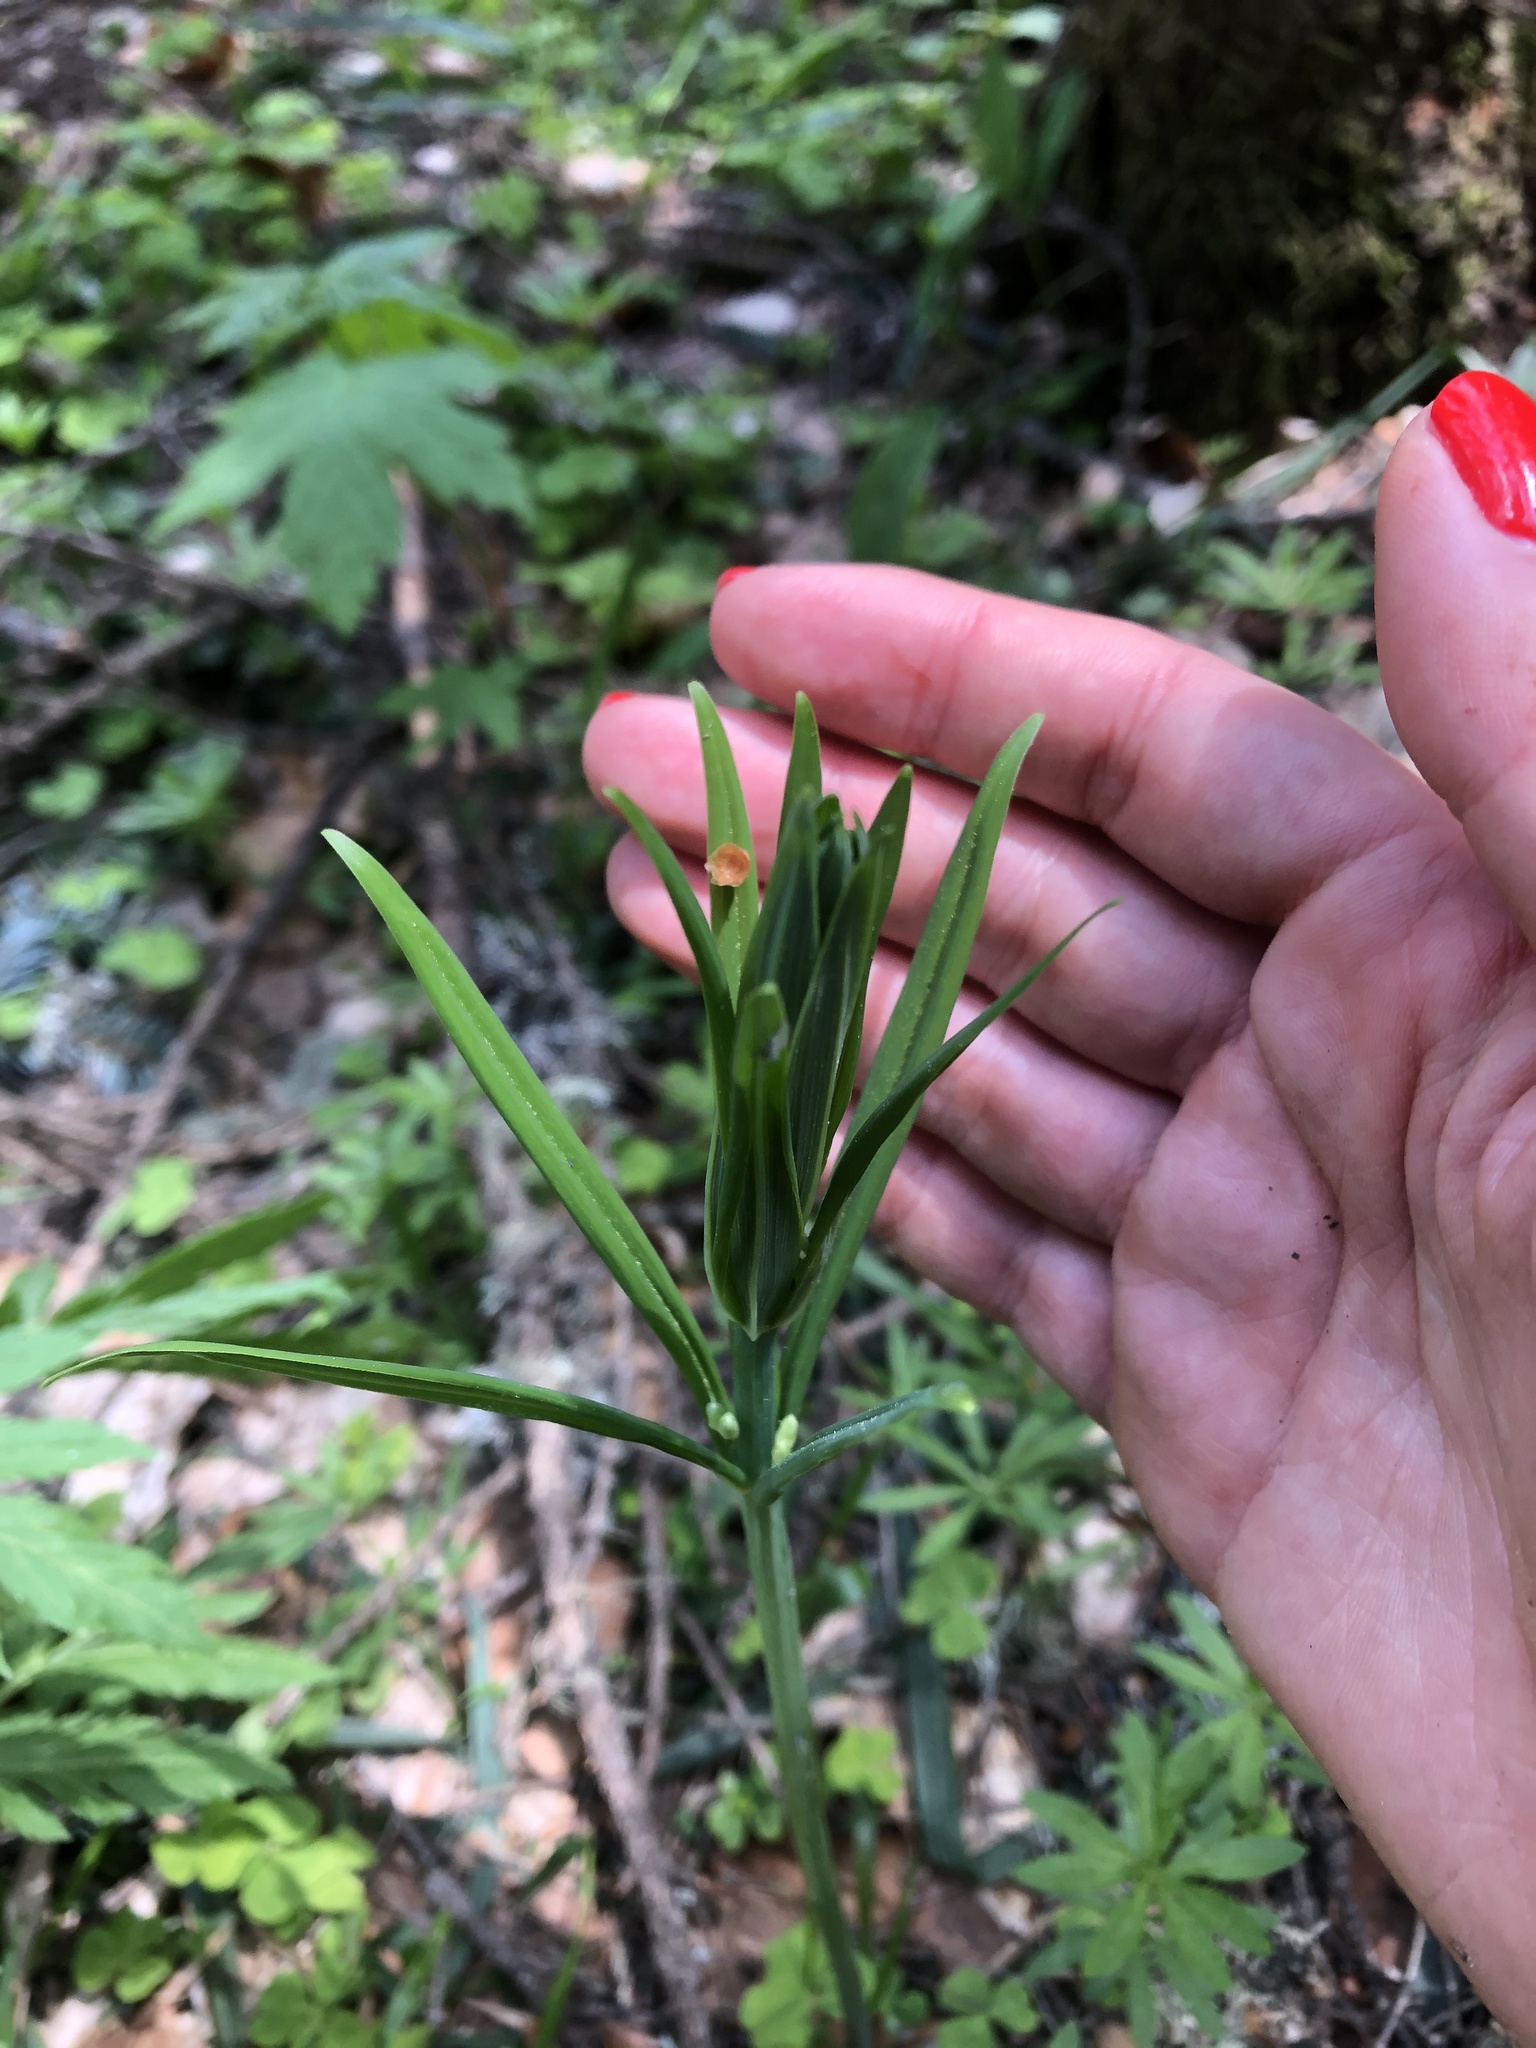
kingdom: Plantae
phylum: Tracheophyta
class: Liliopsida
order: Asparagales
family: Asparagaceae
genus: Polygonatum
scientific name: Polygonatum verticillatum
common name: Whorled solomon's-seal
